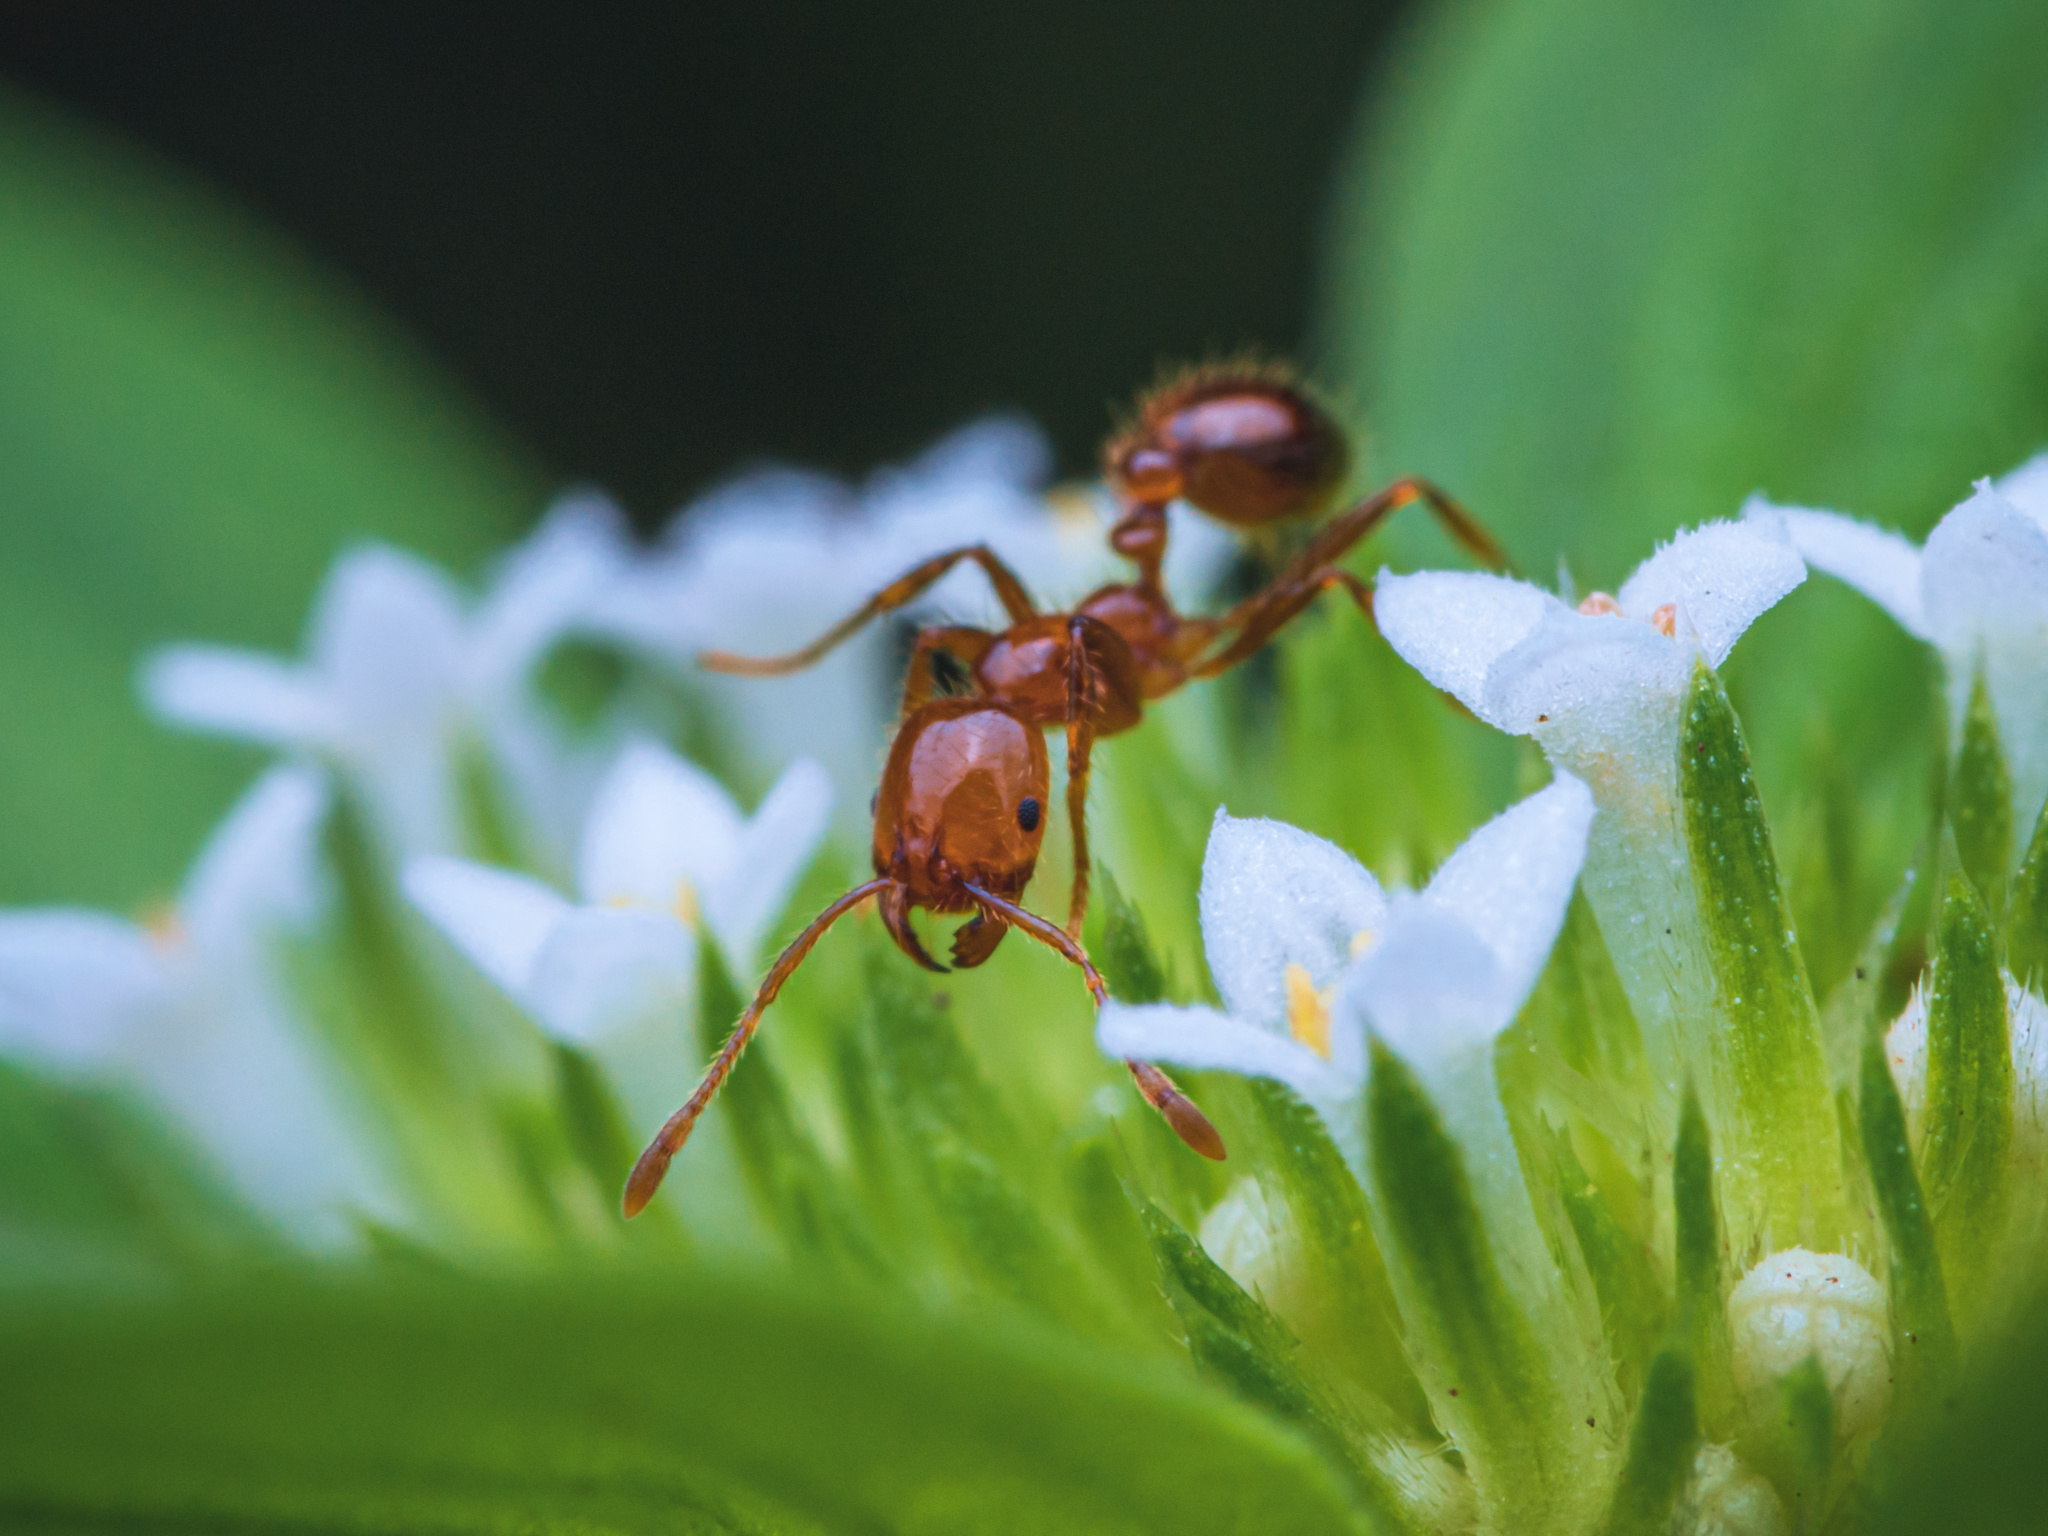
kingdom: Animalia
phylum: Arthropoda
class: Insecta
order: Hymenoptera
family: Formicidae
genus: Solenopsis
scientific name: Solenopsis geminata
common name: Tropical fire ant
